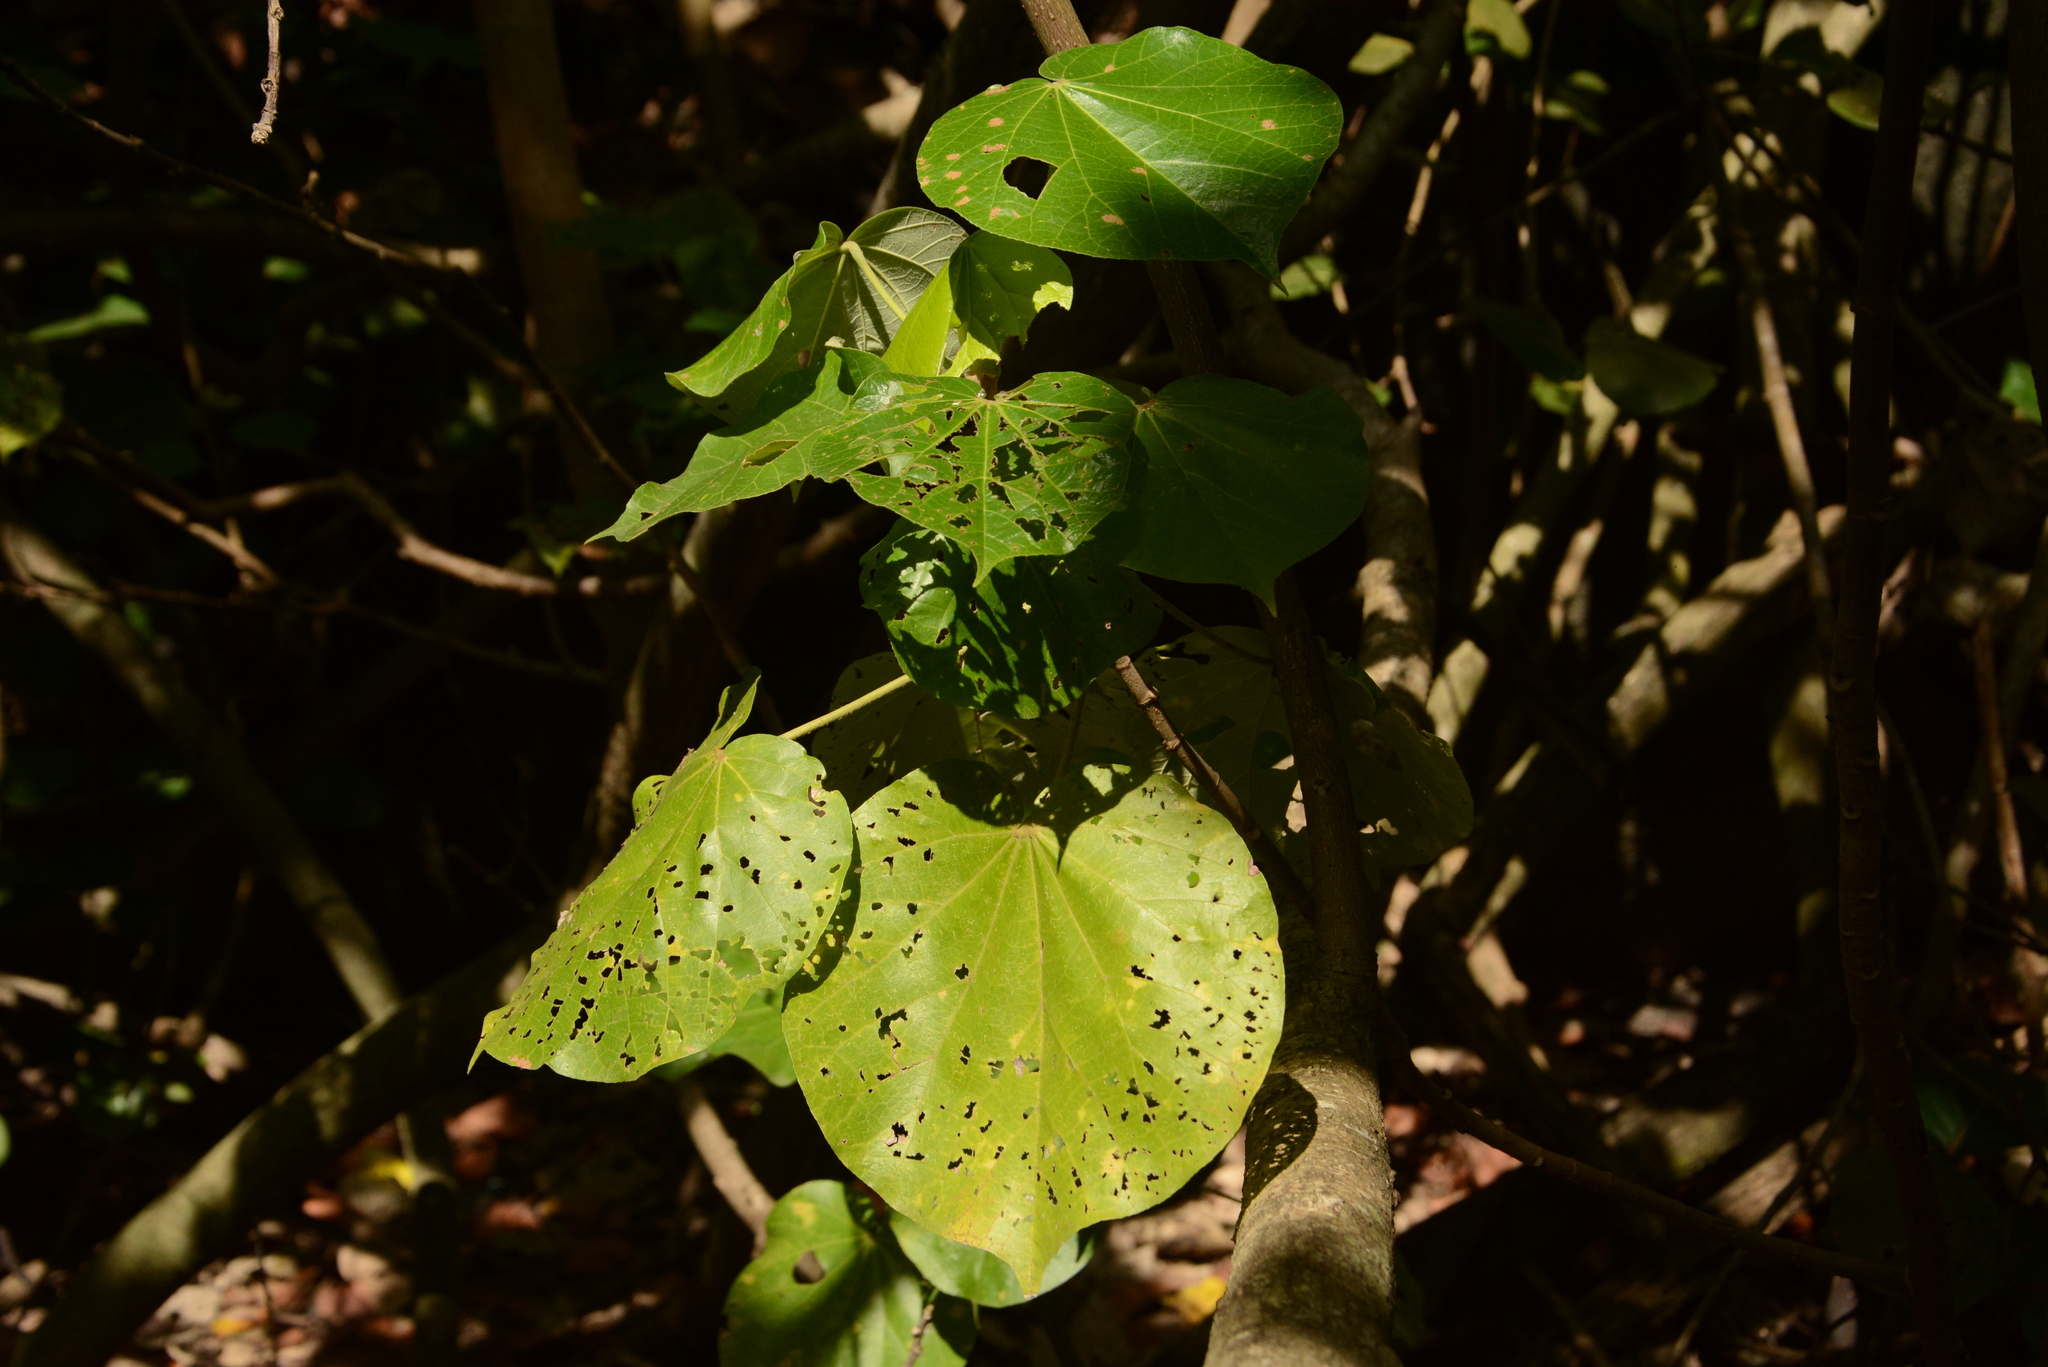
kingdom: Plantae
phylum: Tracheophyta
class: Magnoliopsida
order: Malvales
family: Malvaceae
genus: Talipariti
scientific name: Talipariti pernambucense
